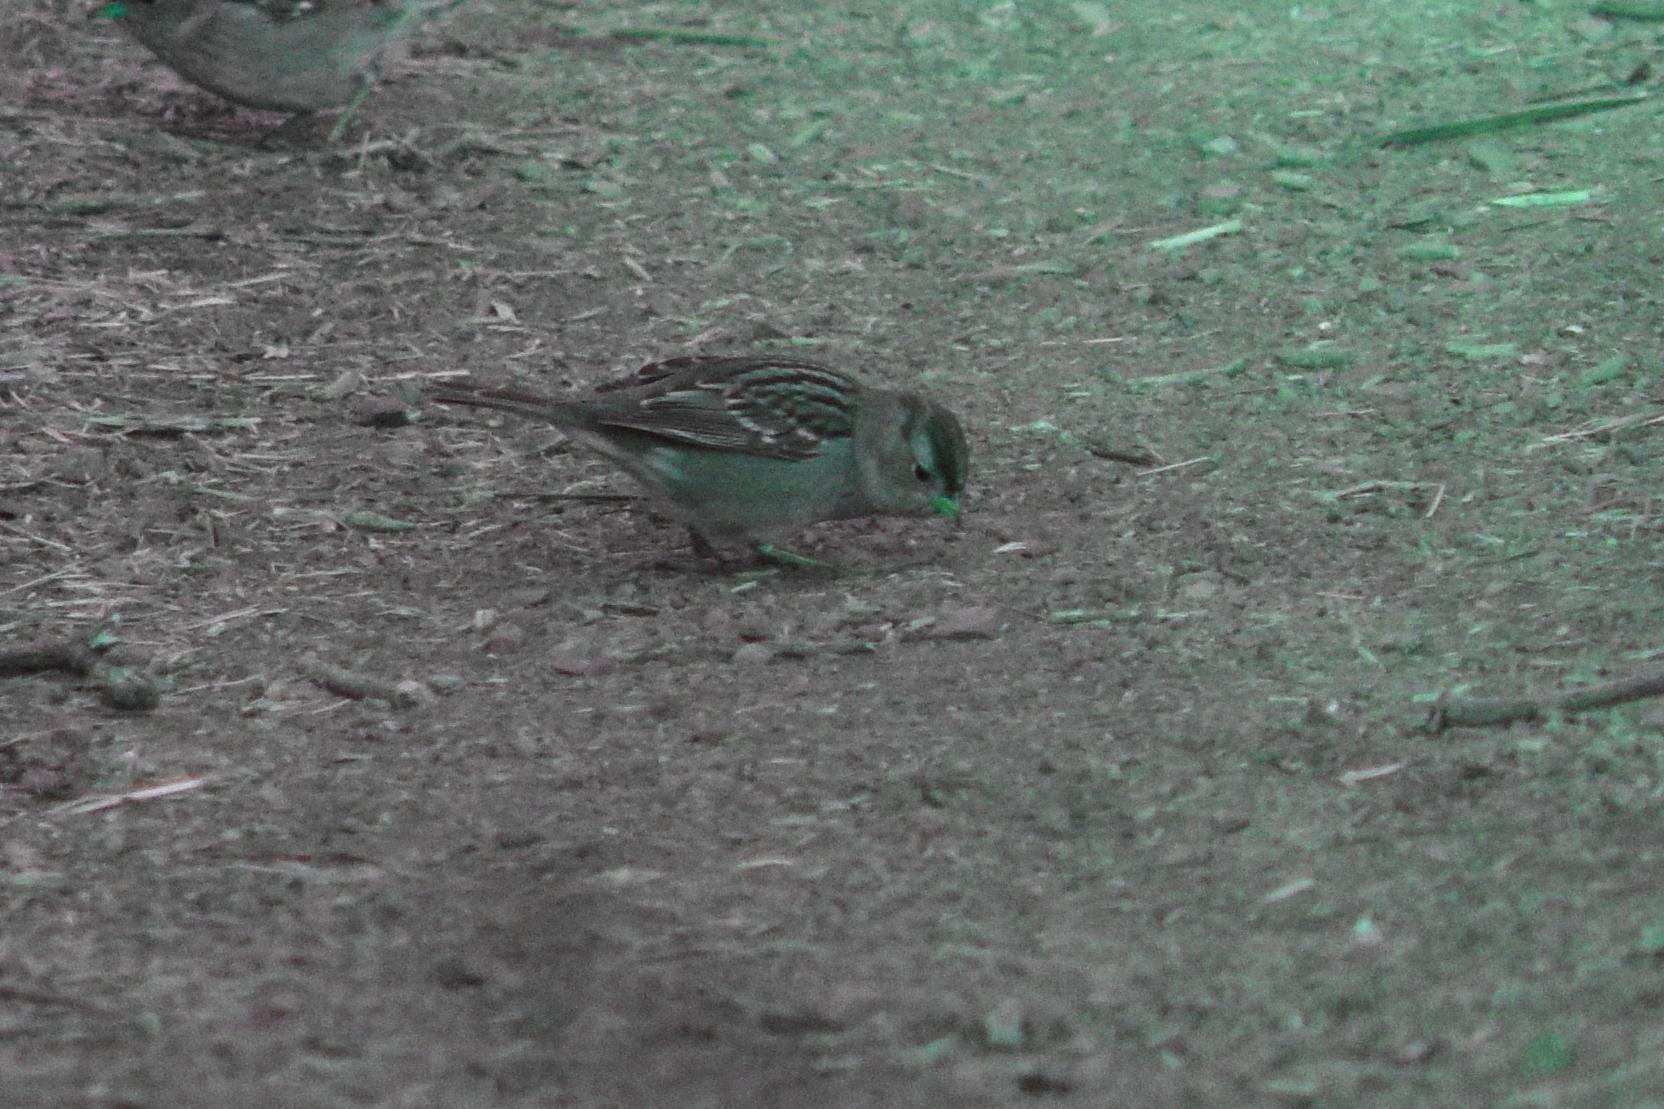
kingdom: Animalia
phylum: Chordata
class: Aves
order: Passeriformes
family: Passerellidae
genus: Zonotrichia
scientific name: Zonotrichia leucophrys
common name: White-crowned sparrow
